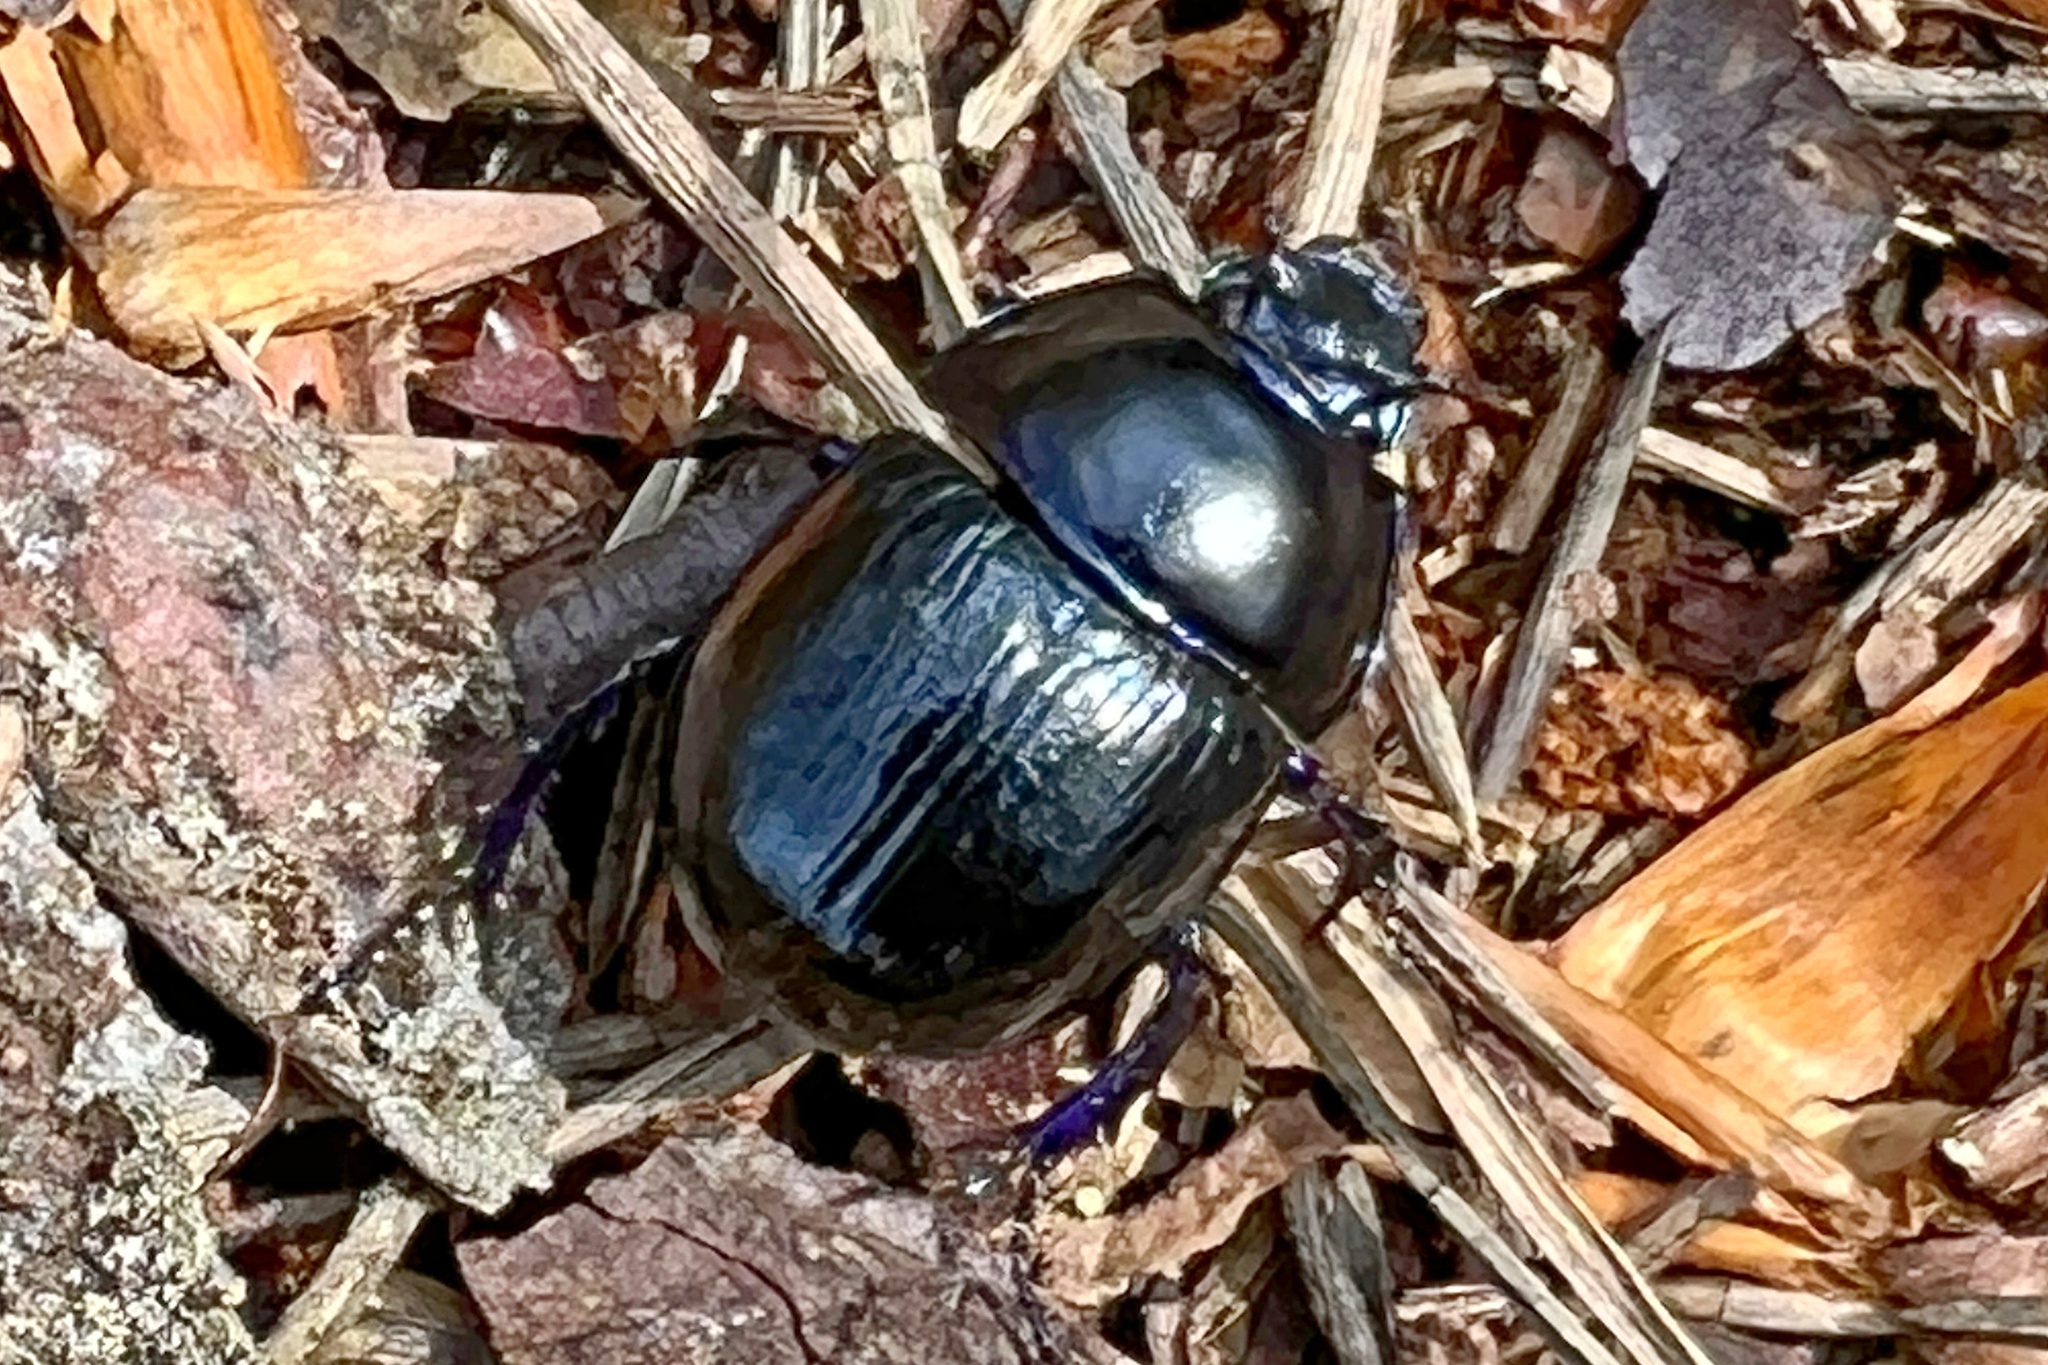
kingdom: Animalia
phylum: Arthropoda
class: Insecta
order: Coleoptera
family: Geotrupidae
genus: Anoplotrupes
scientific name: Anoplotrupes stercorosus
